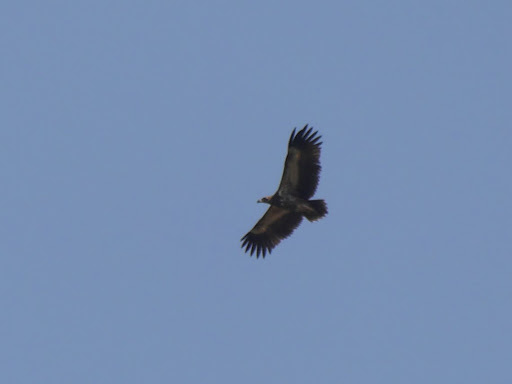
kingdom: Animalia
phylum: Chordata
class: Aves
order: Accipitriformes
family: Accipitridae
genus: Gypohierax
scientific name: Gypohierax angolensis
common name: Palm-nut vulture
